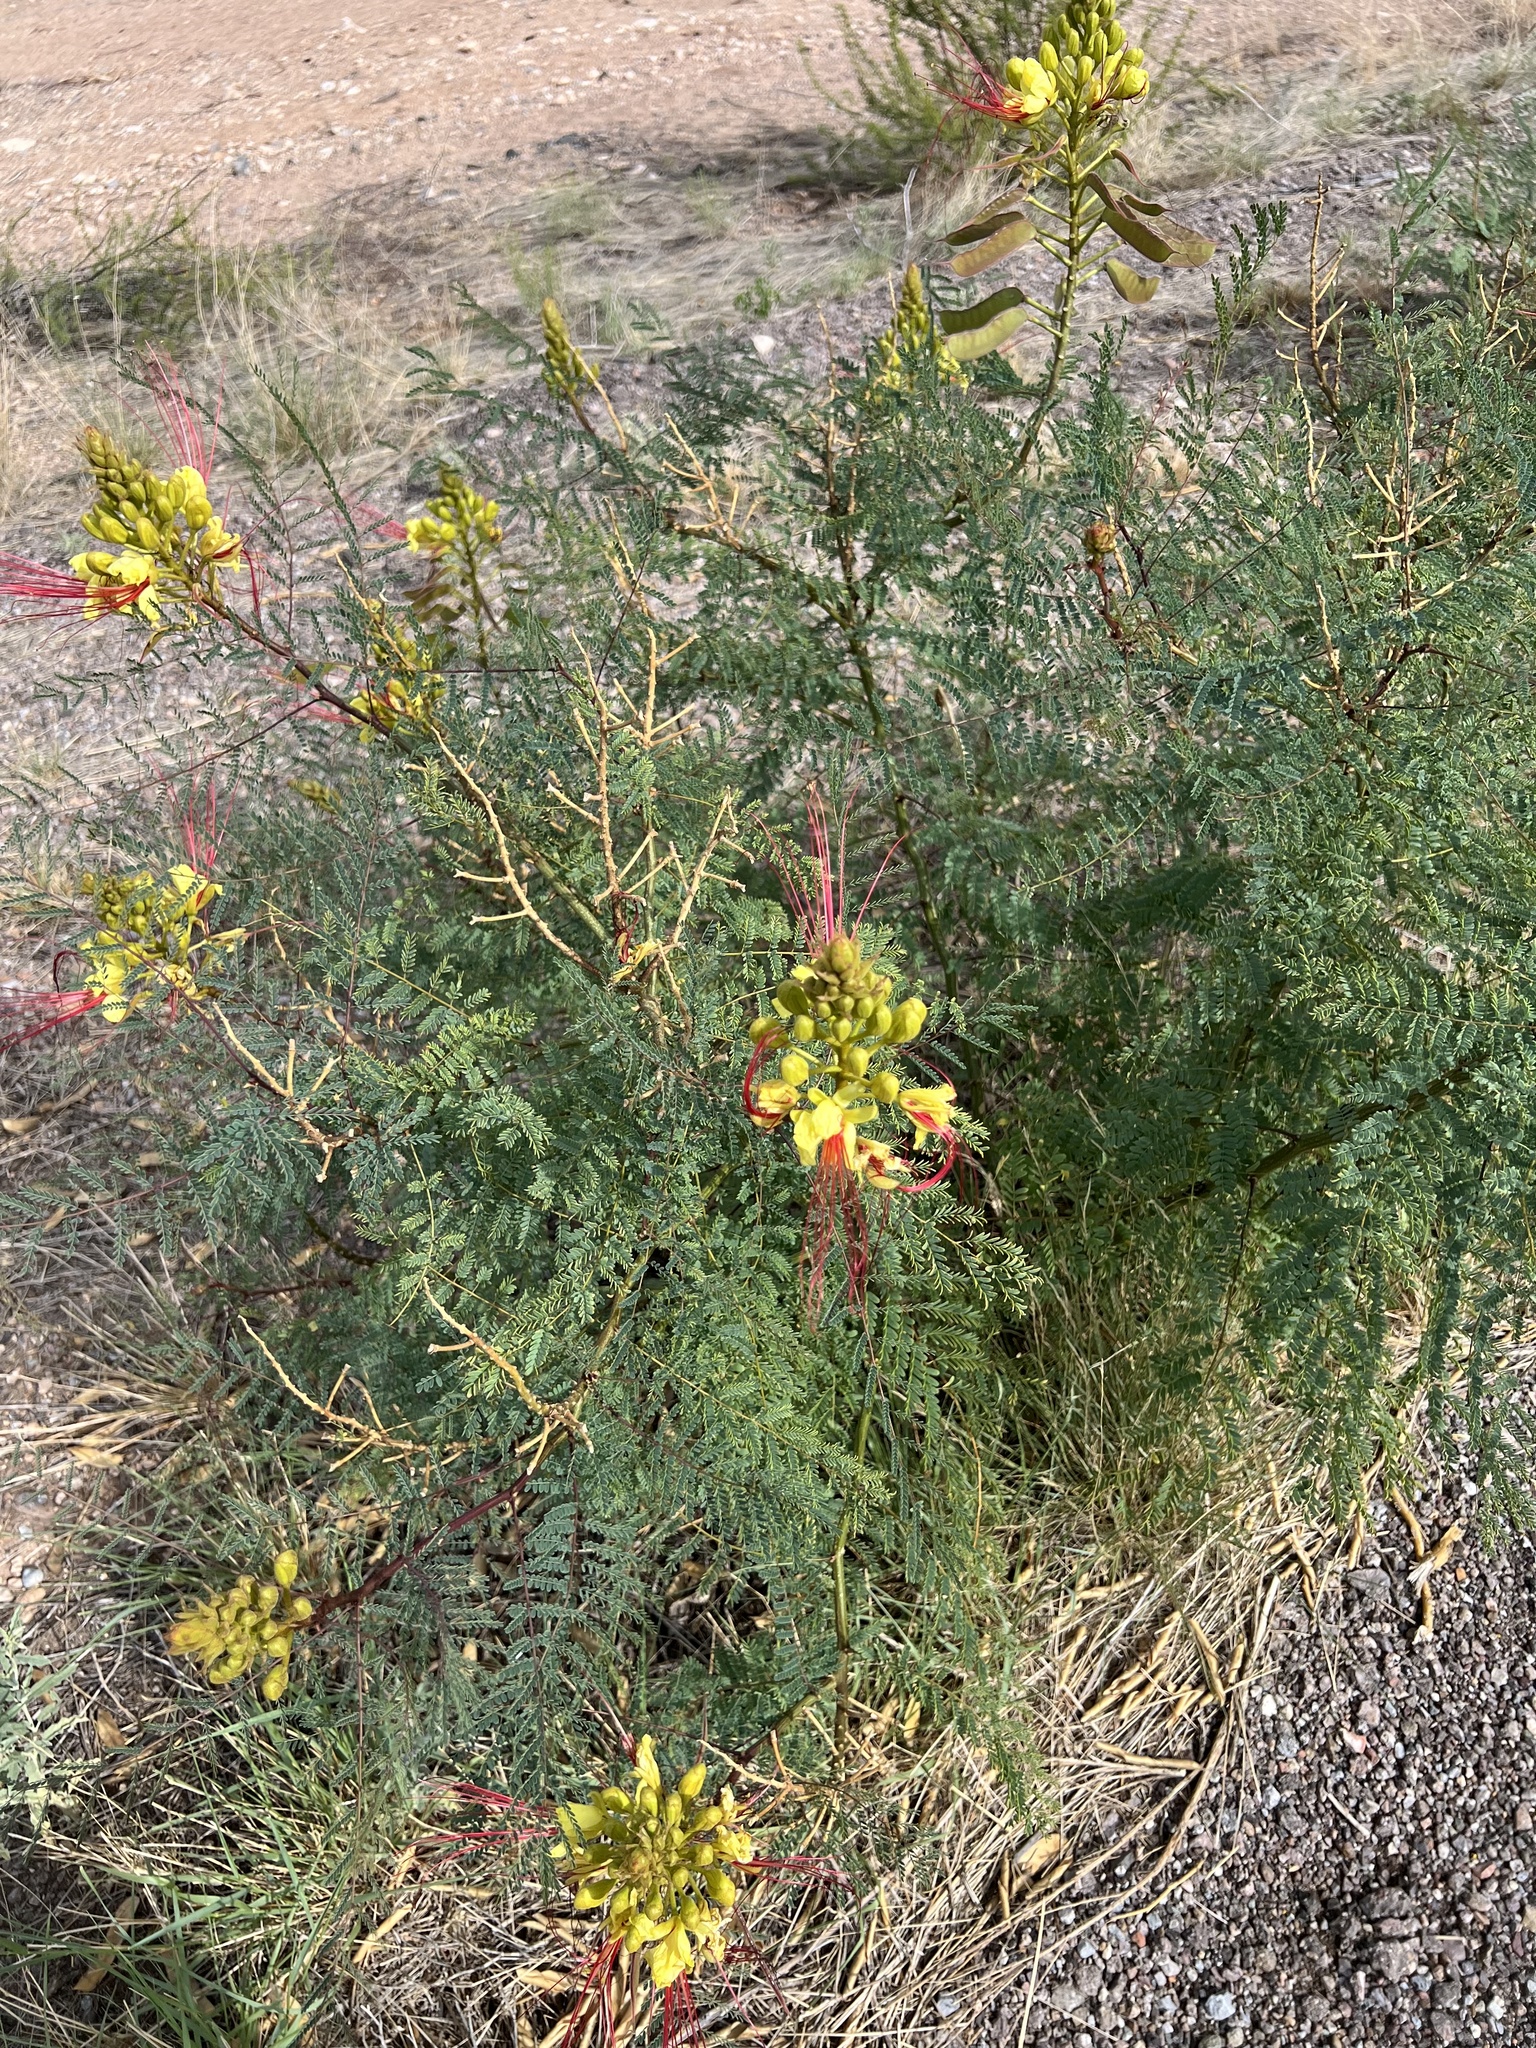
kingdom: Plantae
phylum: Tracheophyta
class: Magnoliopsida
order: Fabales
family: Fabaceae
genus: Erythrostemon
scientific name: Erythrostemon gilliesii
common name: Bird-of-paradise shrub
